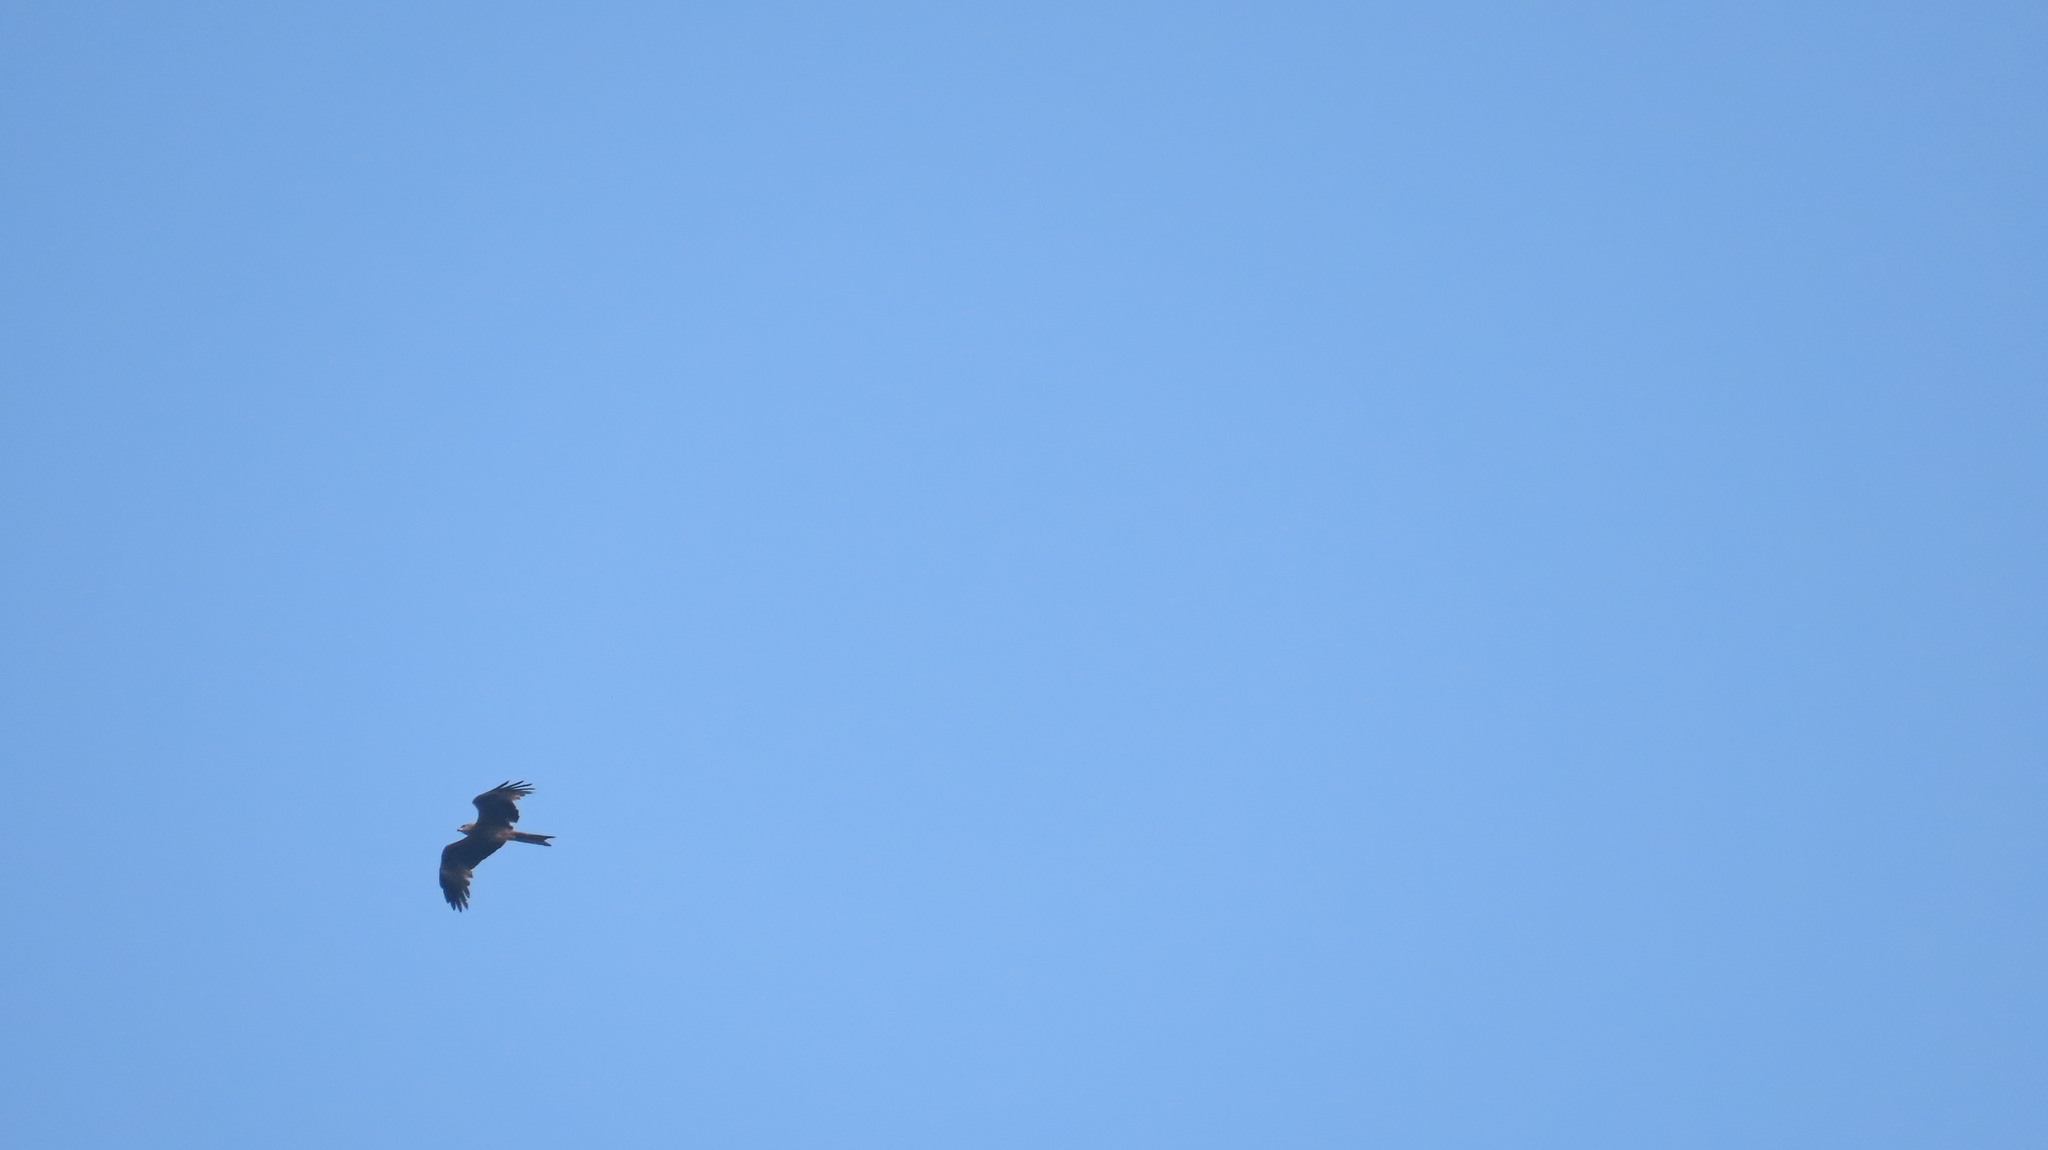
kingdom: Animalia
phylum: Chordata
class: Aves
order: Accipitriformes
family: Accipitridae
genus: Milvus
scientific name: Milvus migrans
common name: Black kite
